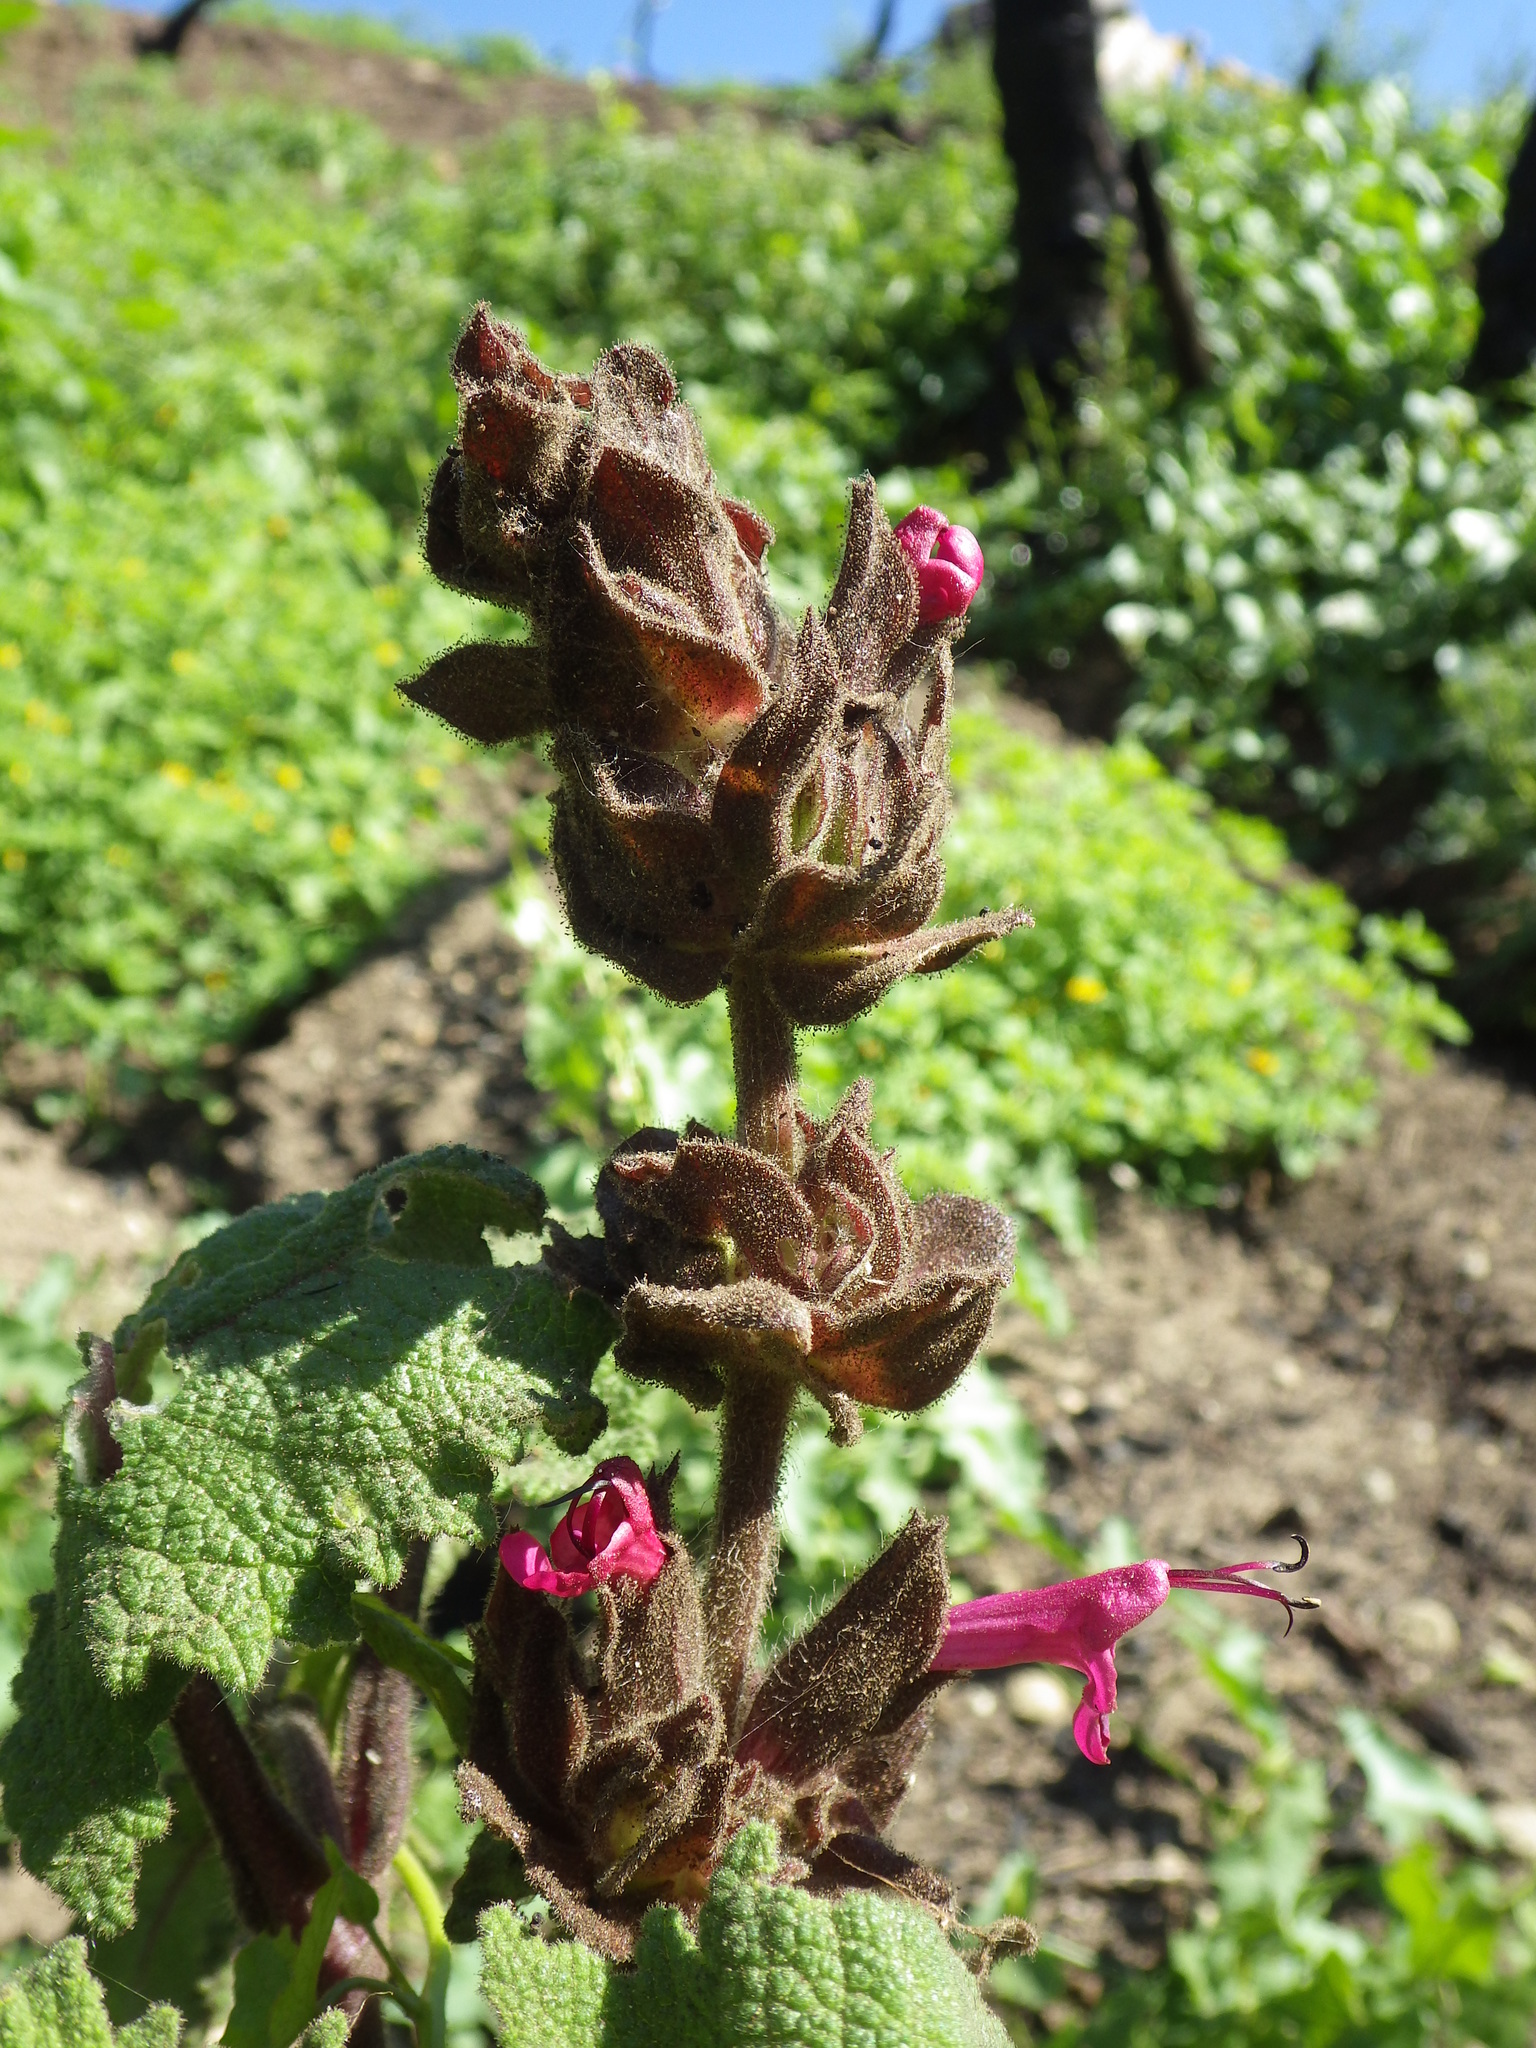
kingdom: Plantae
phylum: Tracheophyta
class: Magnoliopsida
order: Lamiales
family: Lamiaceae
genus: Salvia
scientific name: Salvia spathacea
